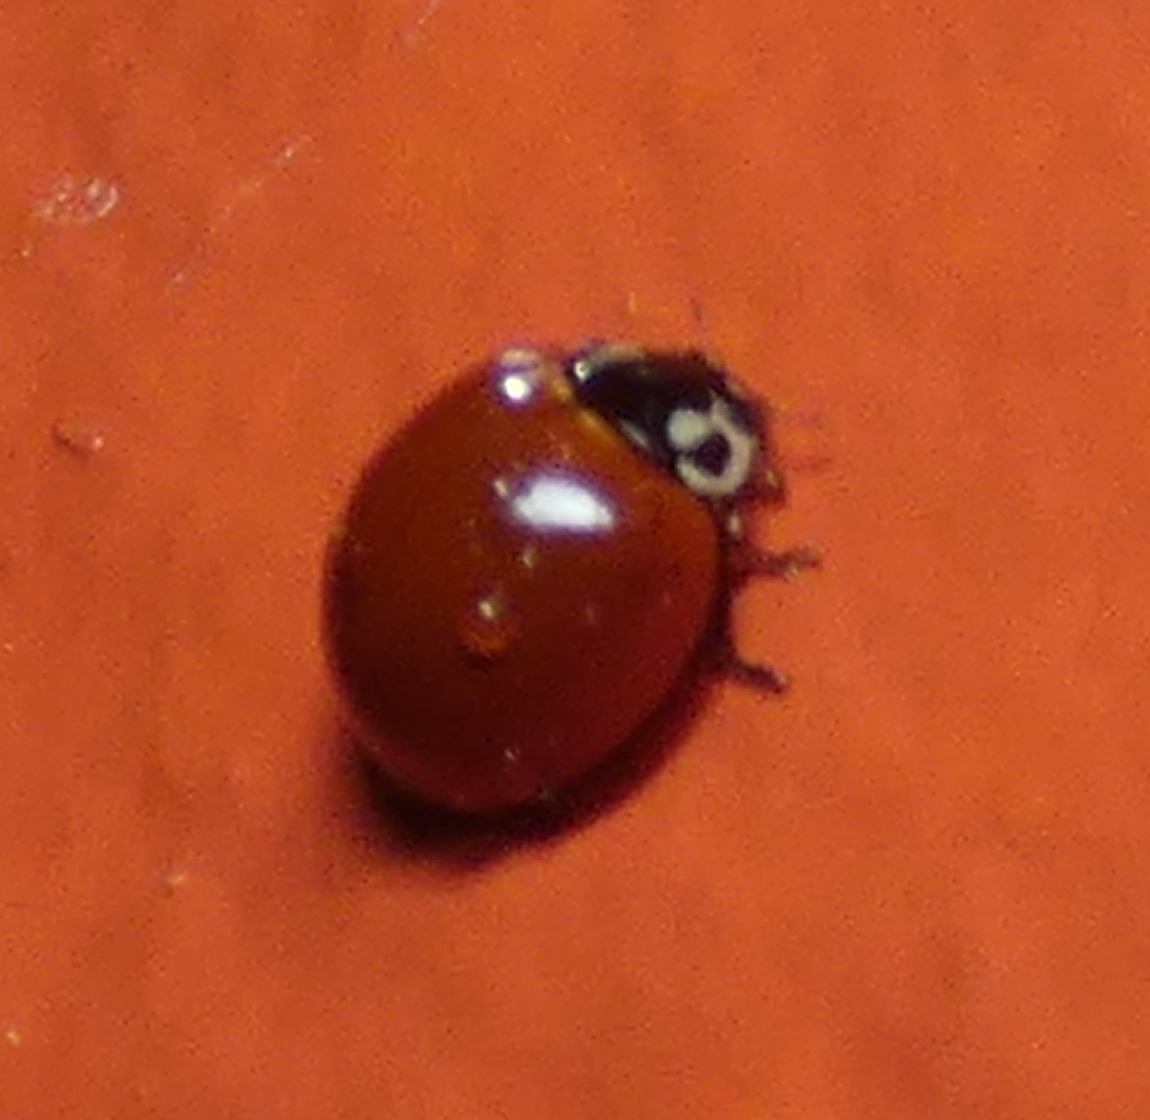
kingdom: Animalia
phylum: Arthropoda
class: Insecta
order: Coleoptera
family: Coccinellidae
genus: Cycloneda
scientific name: Cycloneda sanguinea
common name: Ladybird beetle
